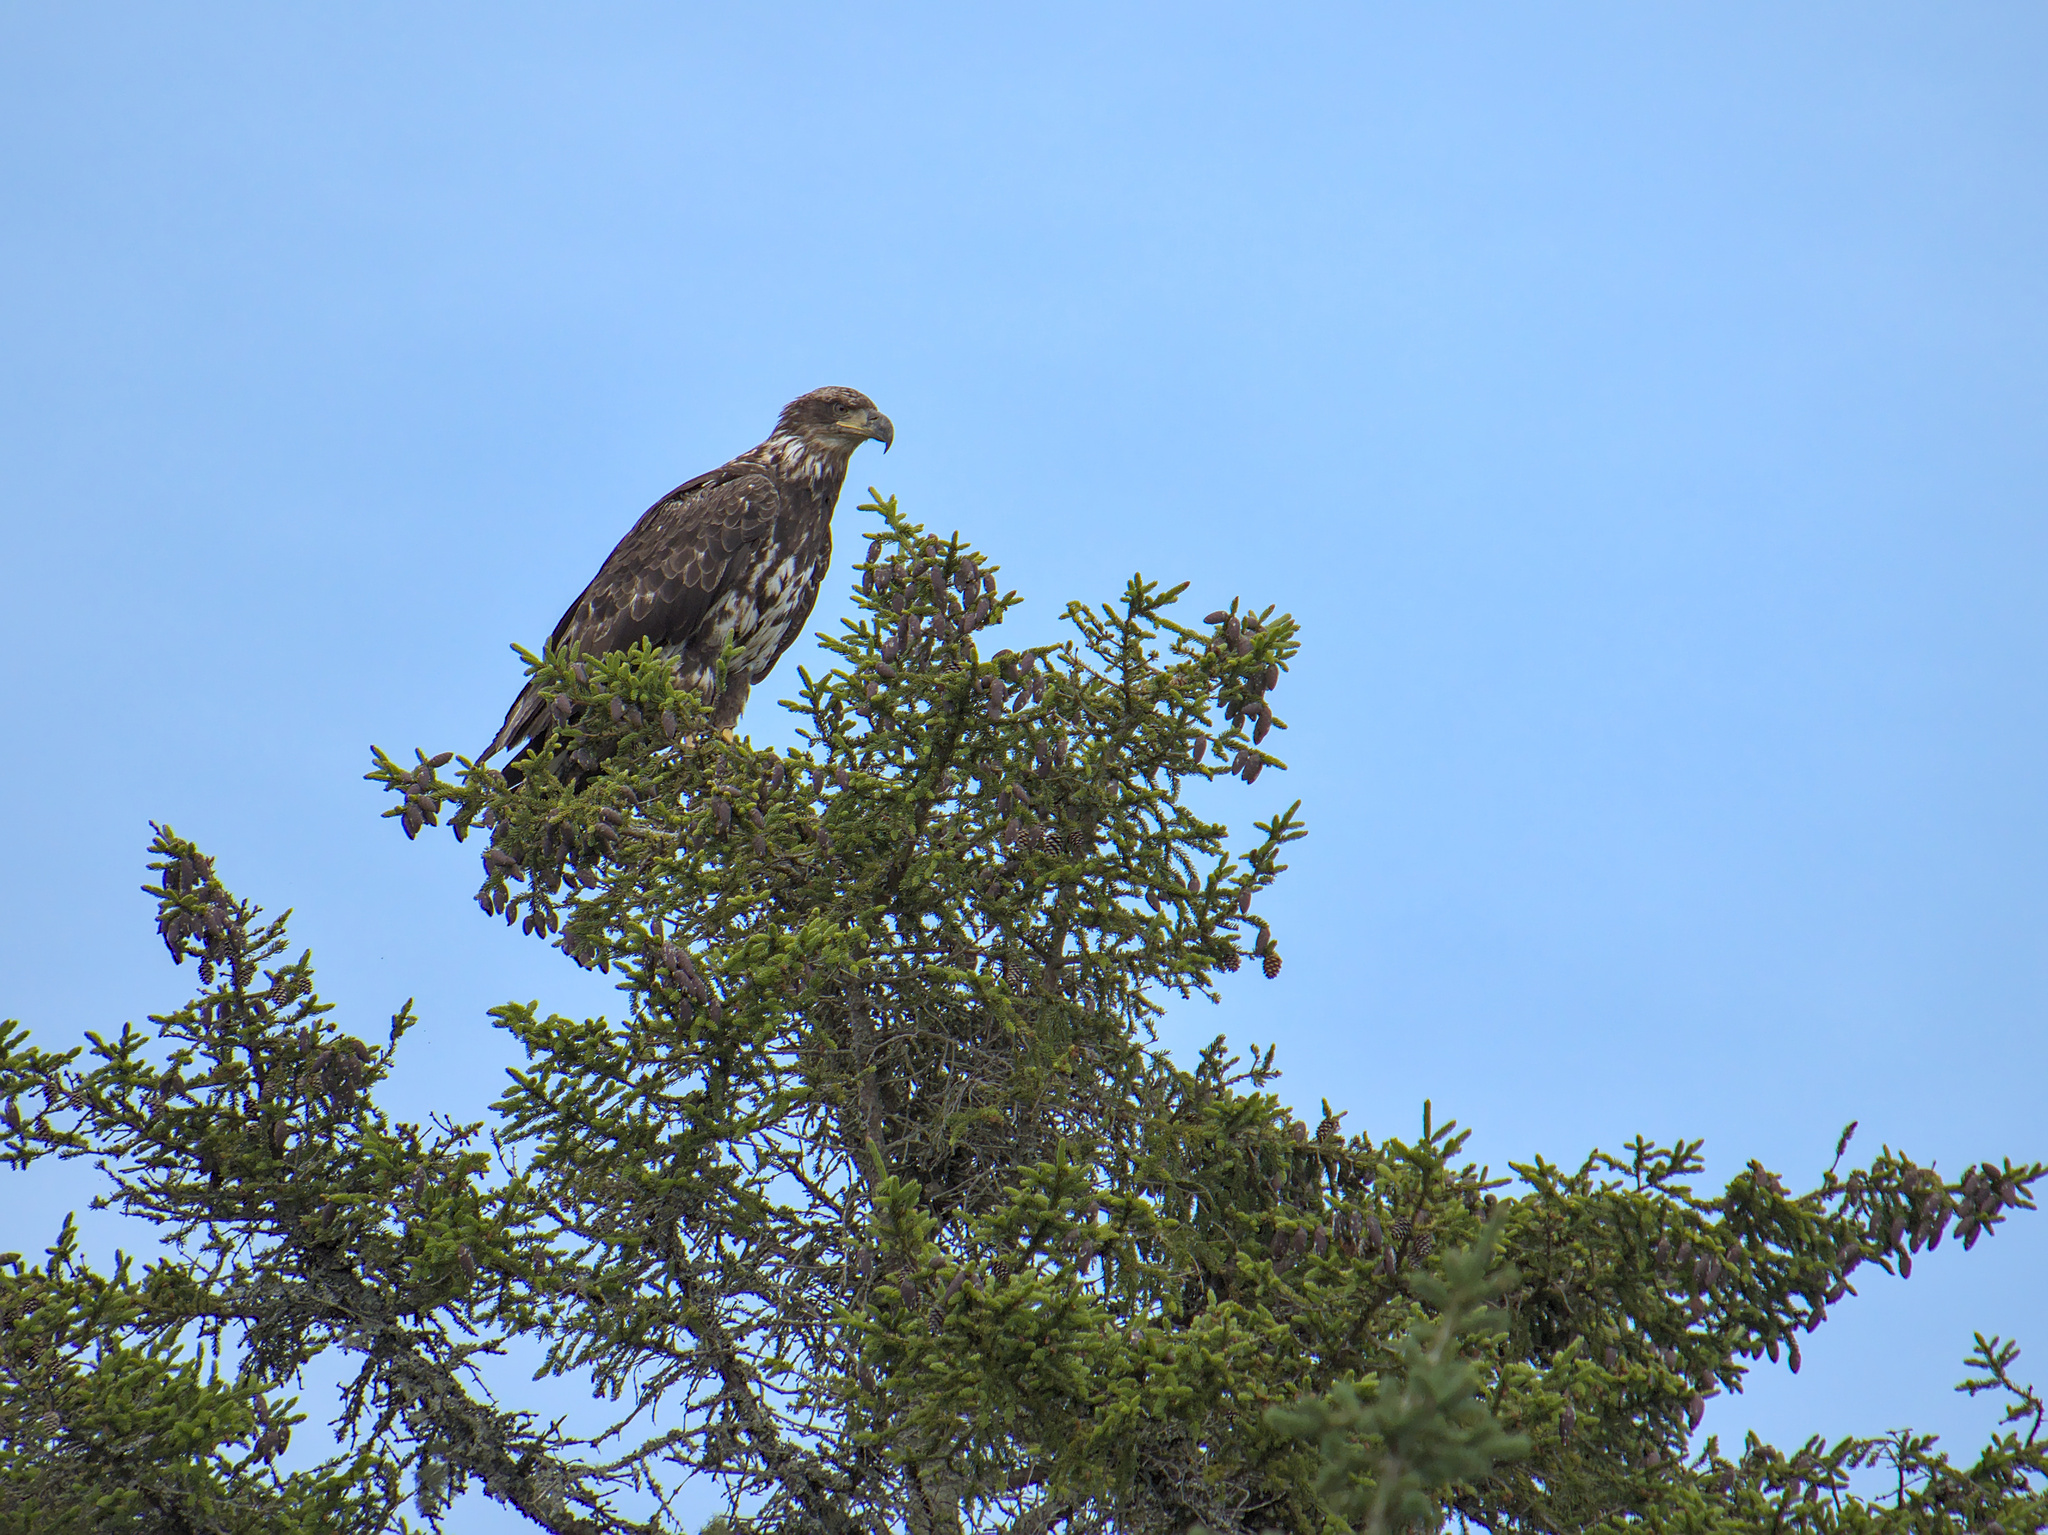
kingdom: Animalia
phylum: Chordata
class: Aves
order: Accipitriformes
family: Accipitridae
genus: Haliaeetus
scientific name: Haliaeetus leucocephalus
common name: Bald eagle
